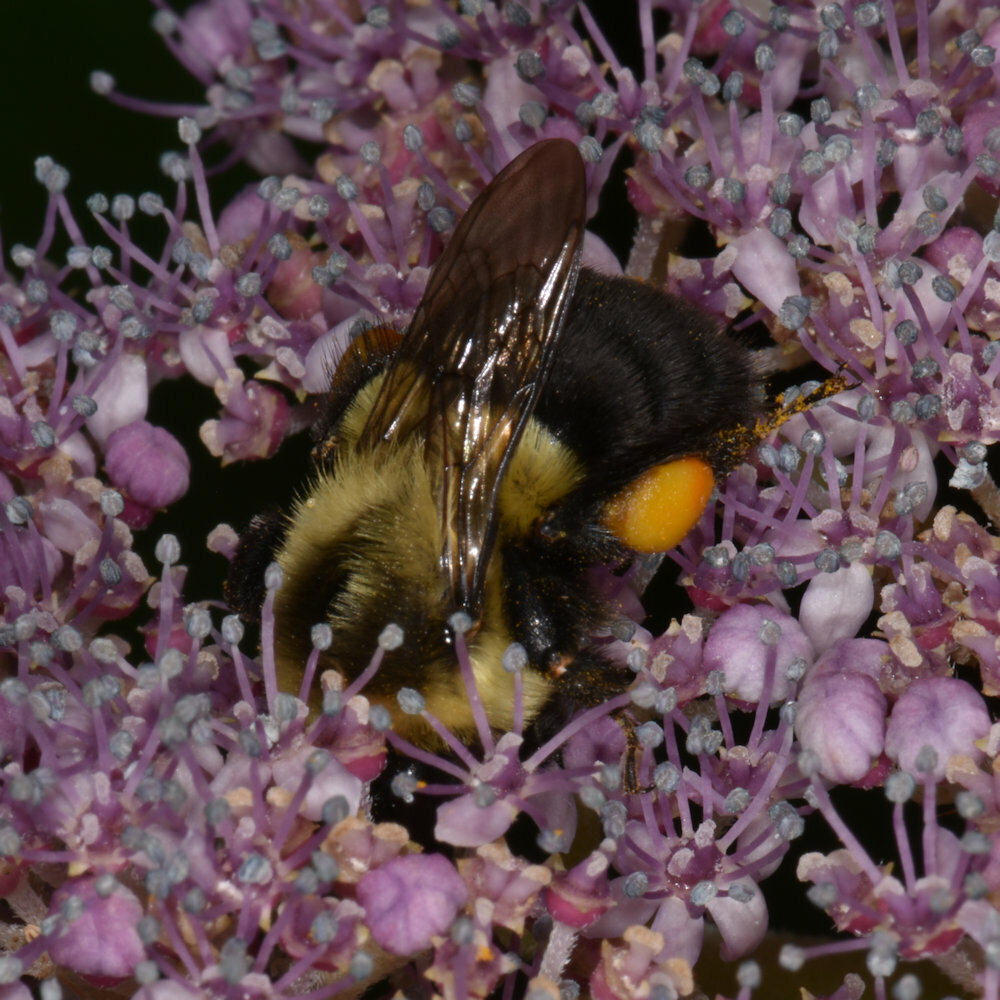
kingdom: Animalia
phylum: Arthropoda
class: Insecta
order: Hymenoptera
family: Apidae
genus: Bombus
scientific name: Bombus impatiens
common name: Common eastern bumble bee
